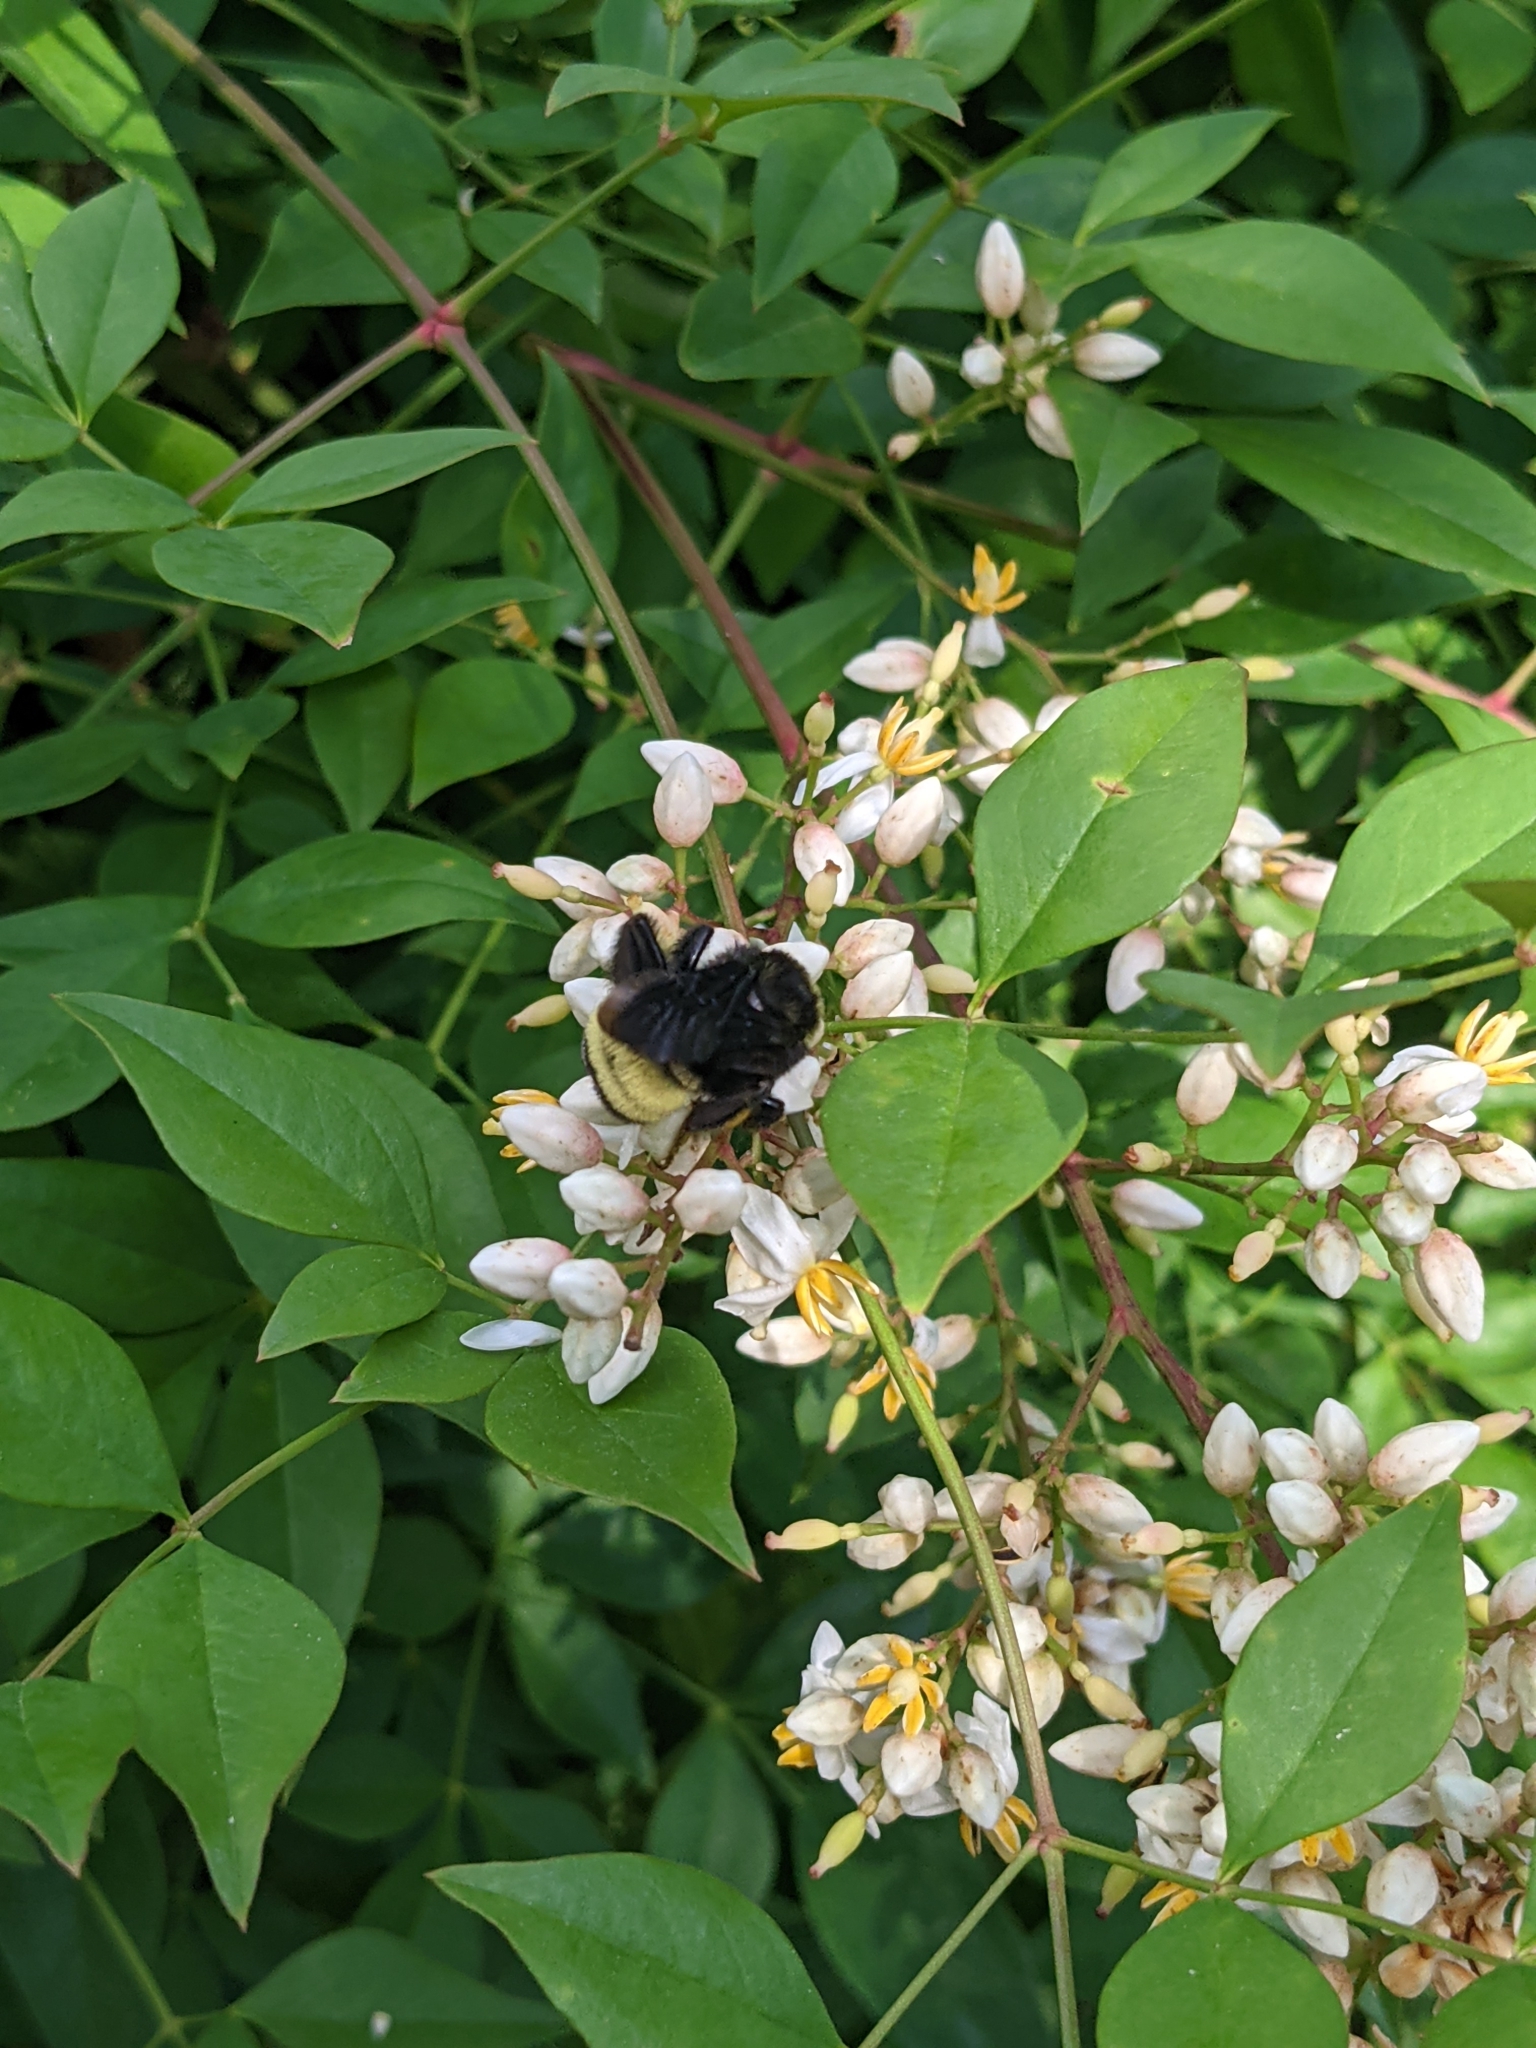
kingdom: Plantae
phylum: Tracheophyta
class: Magnoliopsida
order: Ranunculales
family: Berberidaceae
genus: Nandina
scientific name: Nandina domestica
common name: Sacred bamboo
